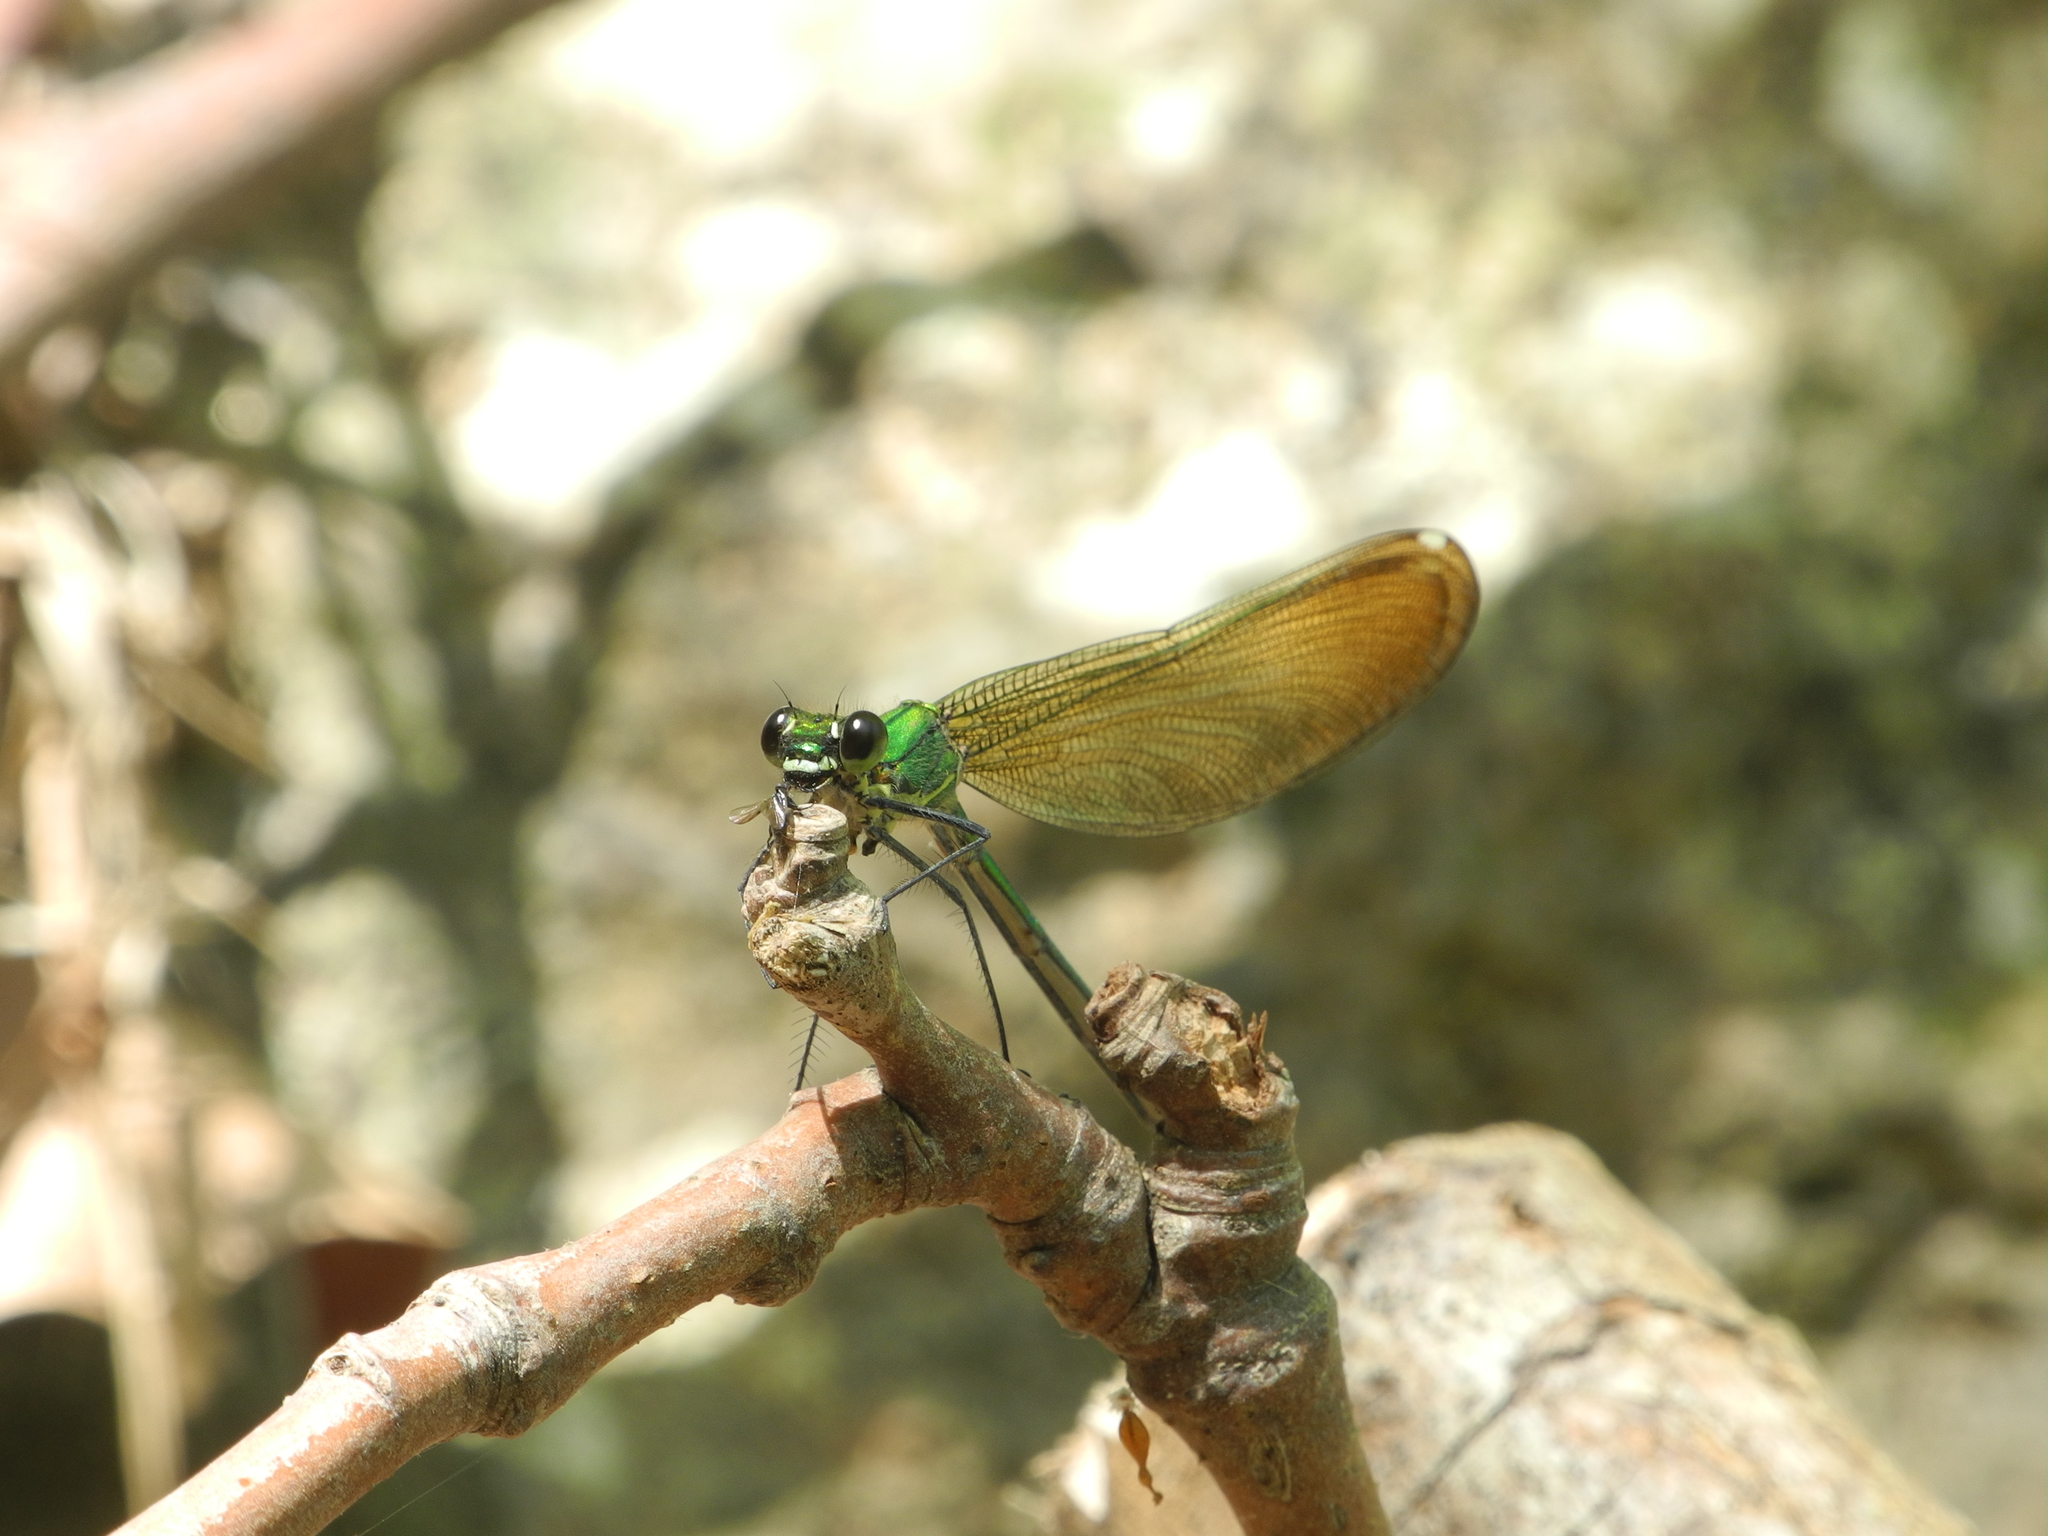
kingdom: Animalia
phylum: Arthropoda
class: Insecta
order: Odonata
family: Calopterygidae
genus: Calopteryx
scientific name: Calopteryx syriaca
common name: Syrian demoiselle
